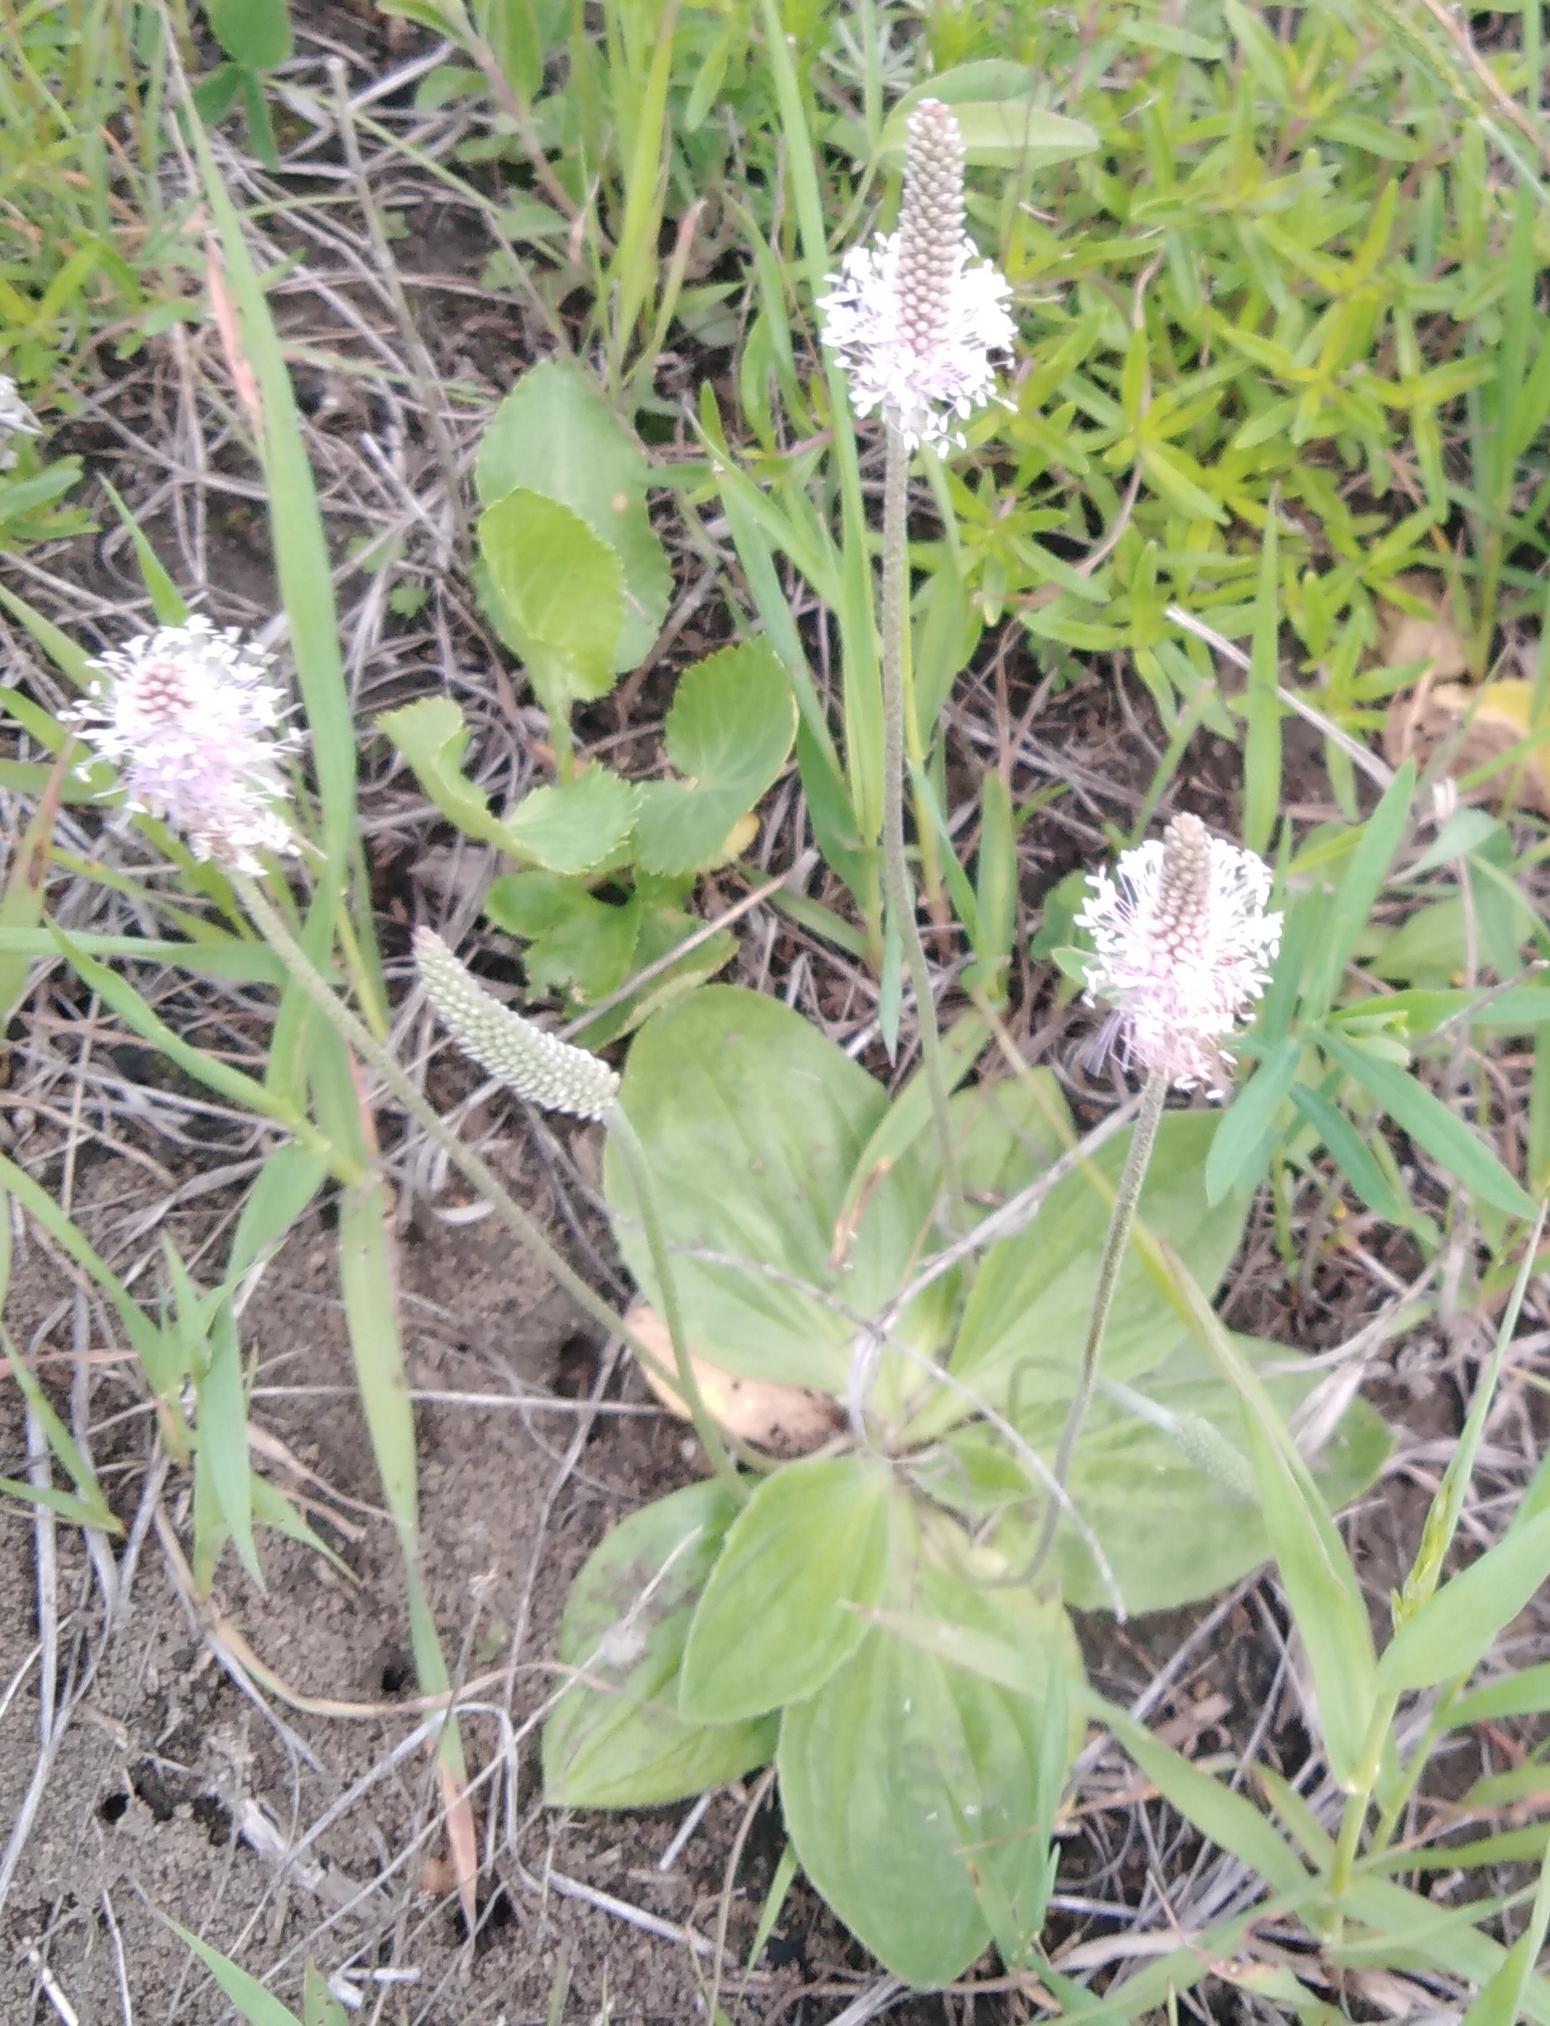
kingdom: Plantae
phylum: Tracheophyta
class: Magnoliopsida
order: Lamiales
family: Plantaginaceae
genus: Plantago
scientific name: Plantago media
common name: Hoary plantain
